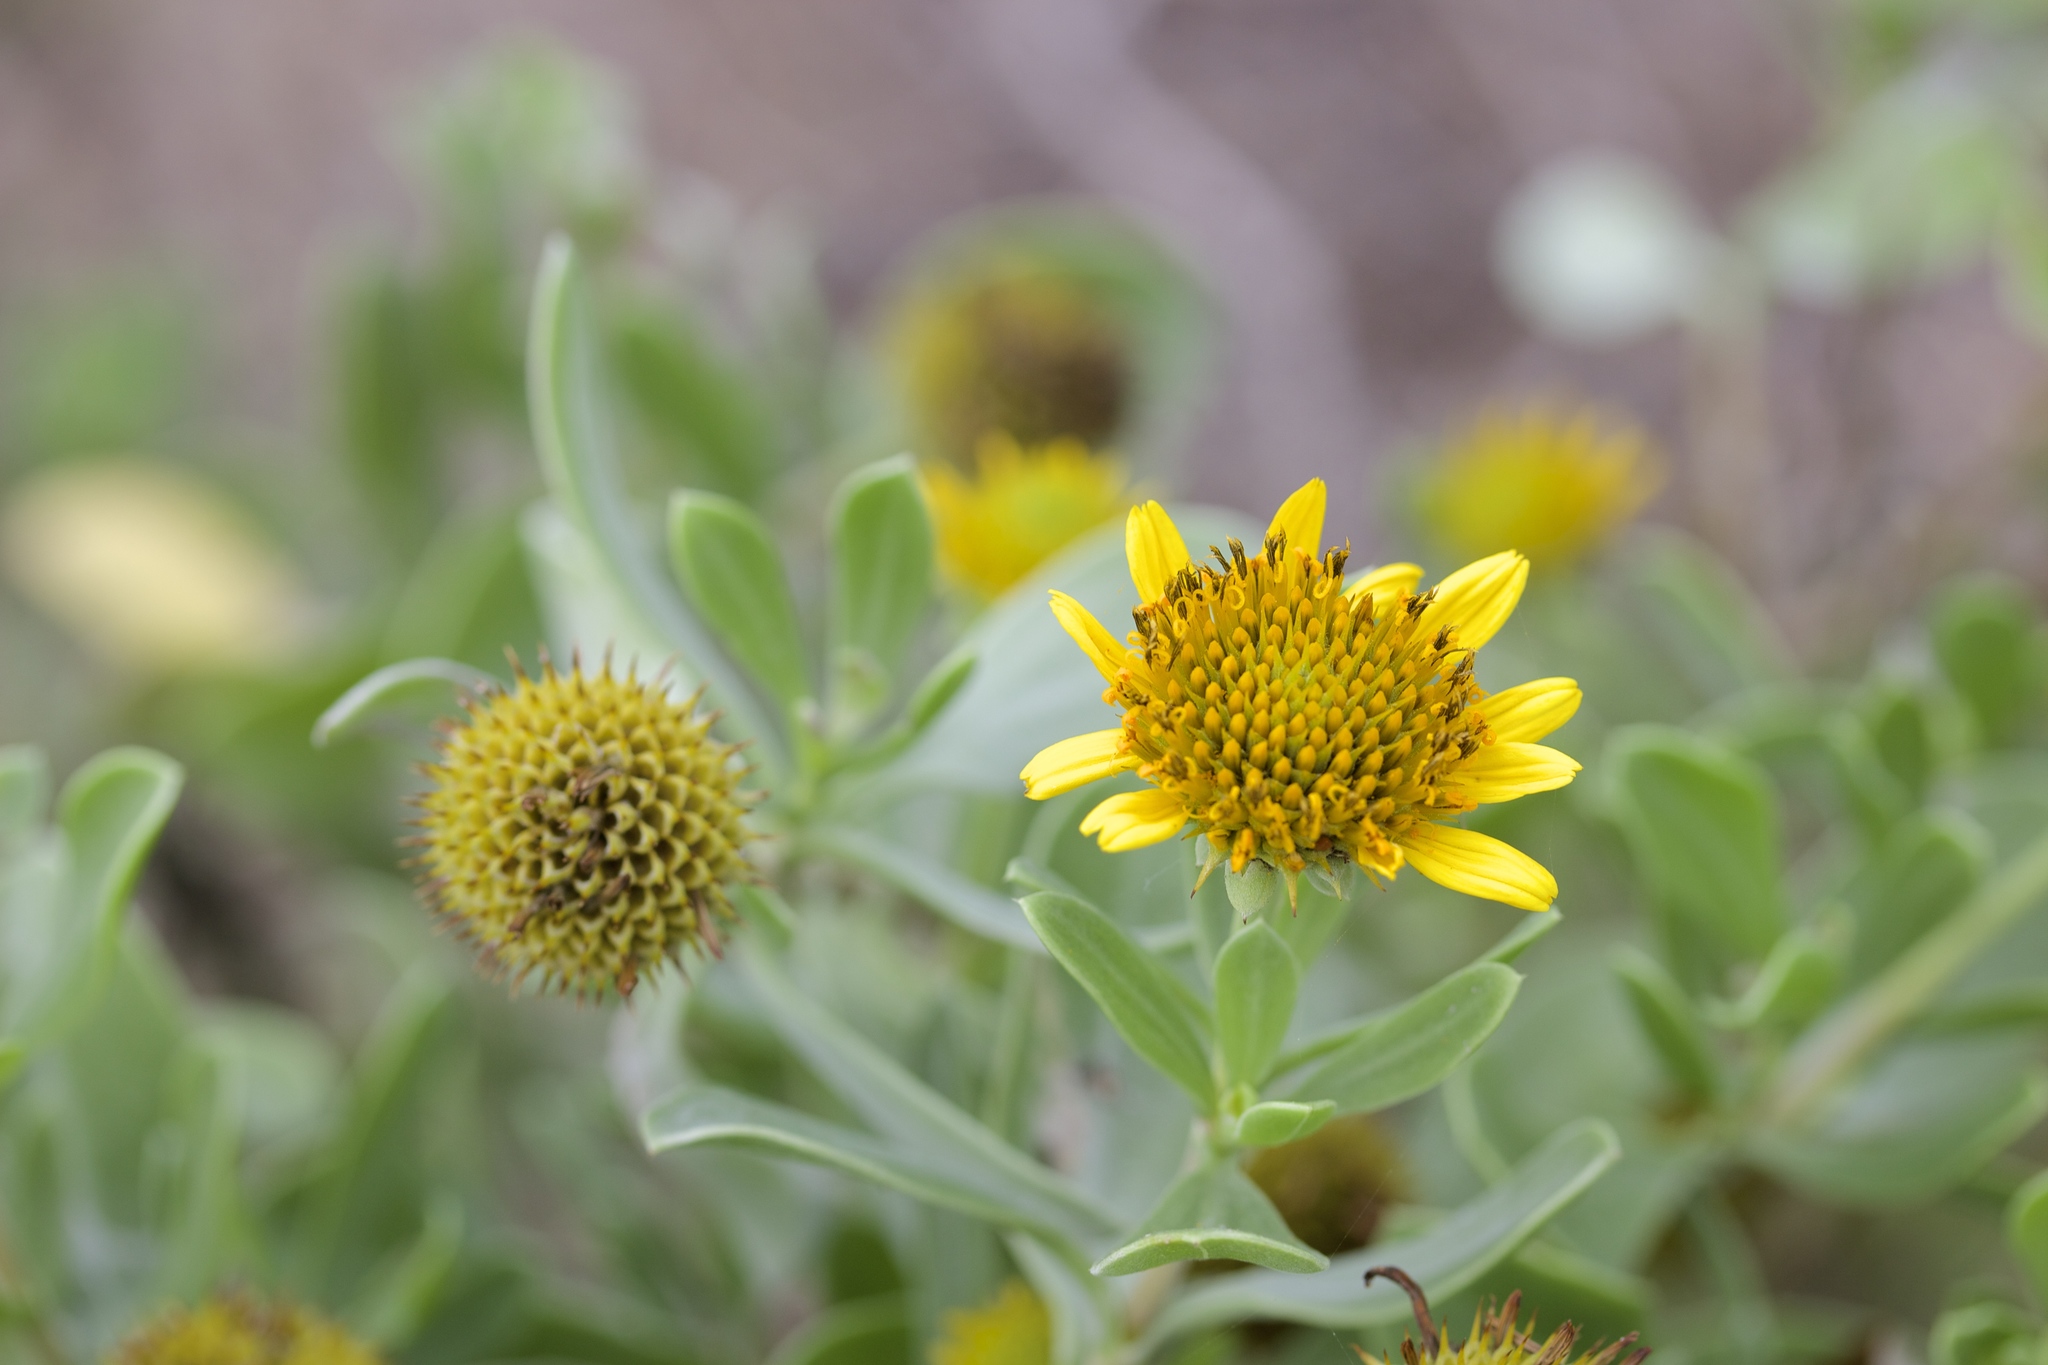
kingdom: Plantae
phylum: Tracheophyta
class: Magnoliopsida
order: Asterales
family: Asteraceae
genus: Borrichia
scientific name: Borrichia frutescens
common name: Sea oxeye
